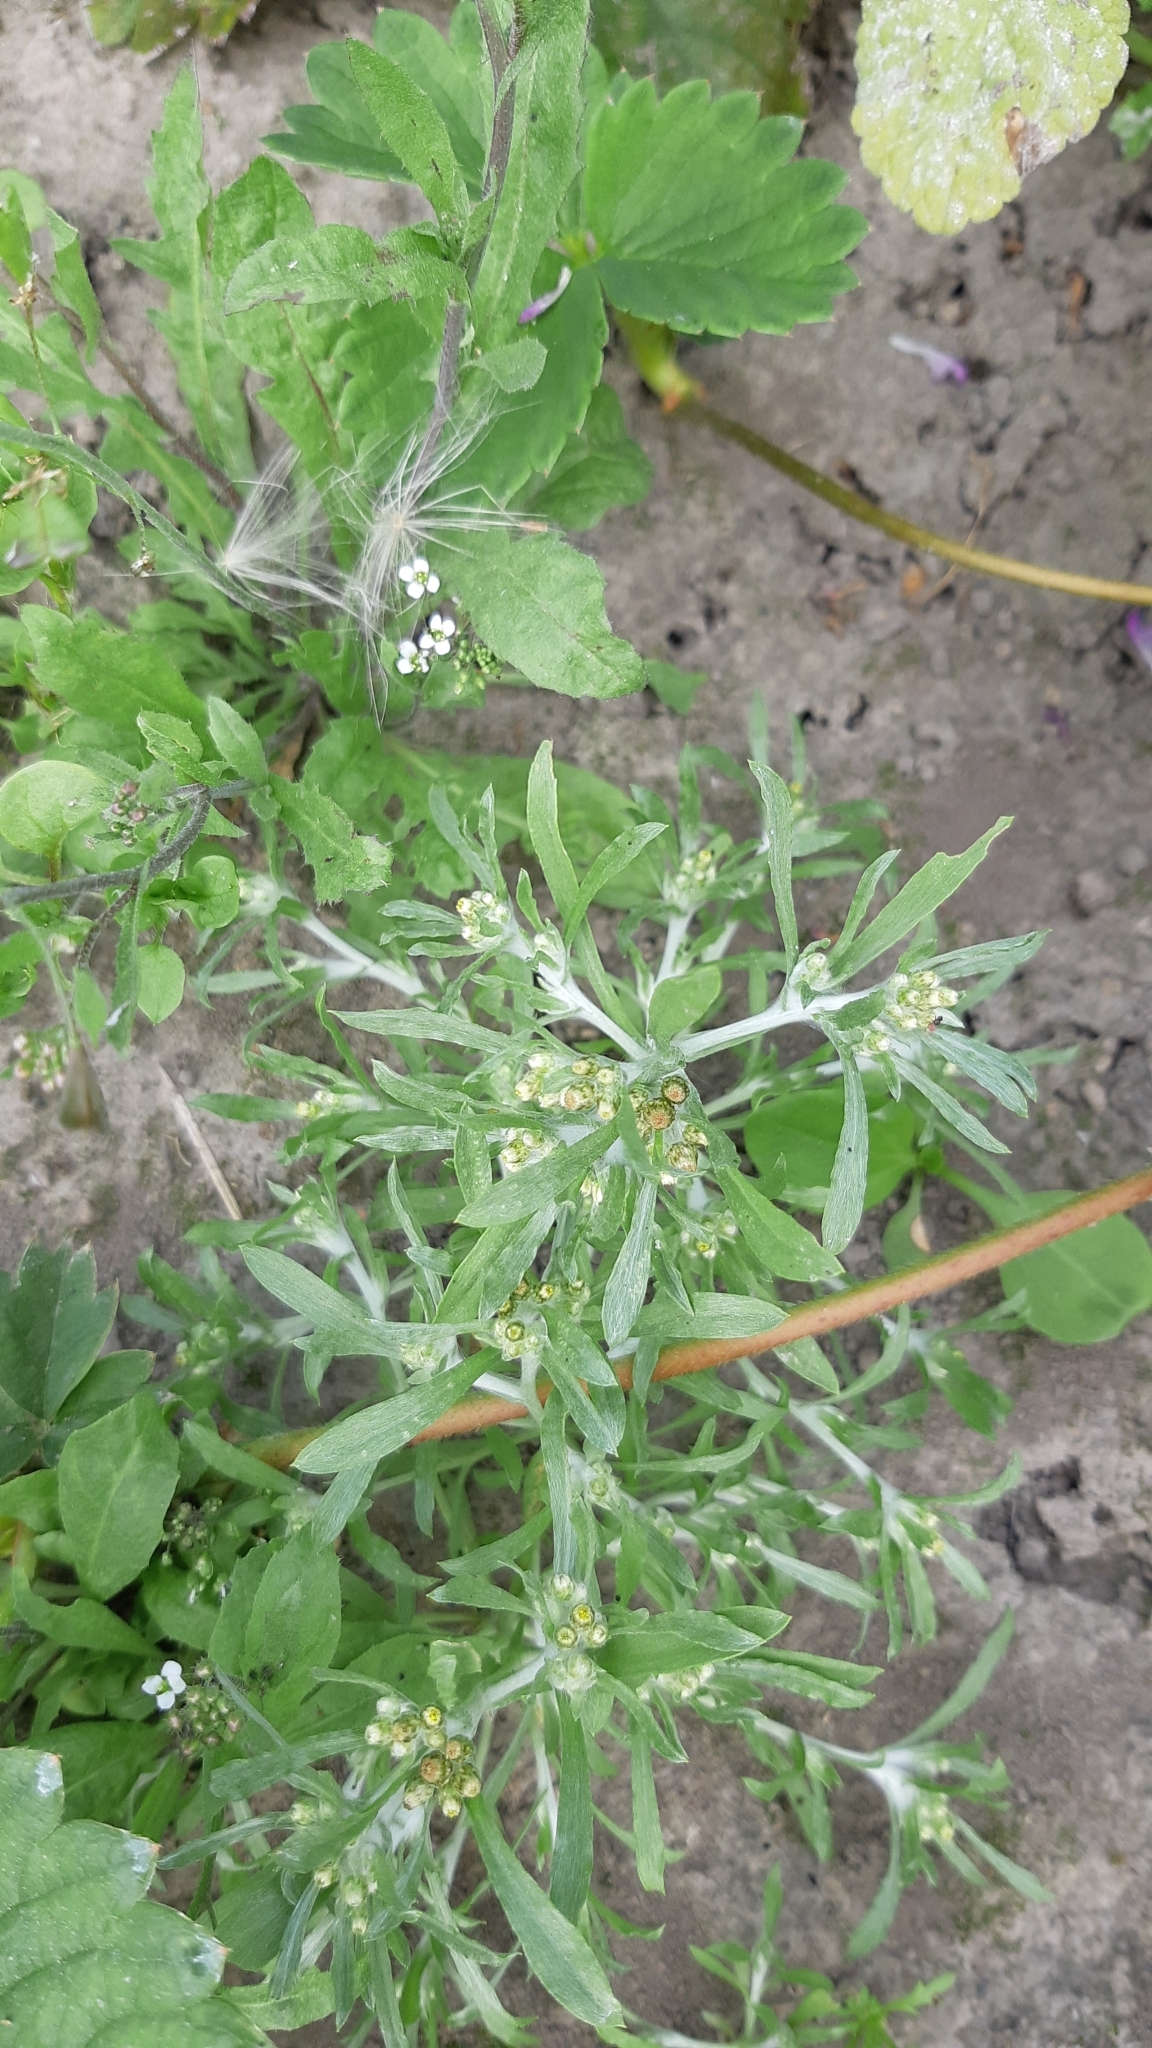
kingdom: Plantae
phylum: Tracheophyta
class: Magnoliopsida
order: Asterales
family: Asteraceae
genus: Gnaphalium
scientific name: Gnaphalium uliginosum
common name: Marsh cudweed
